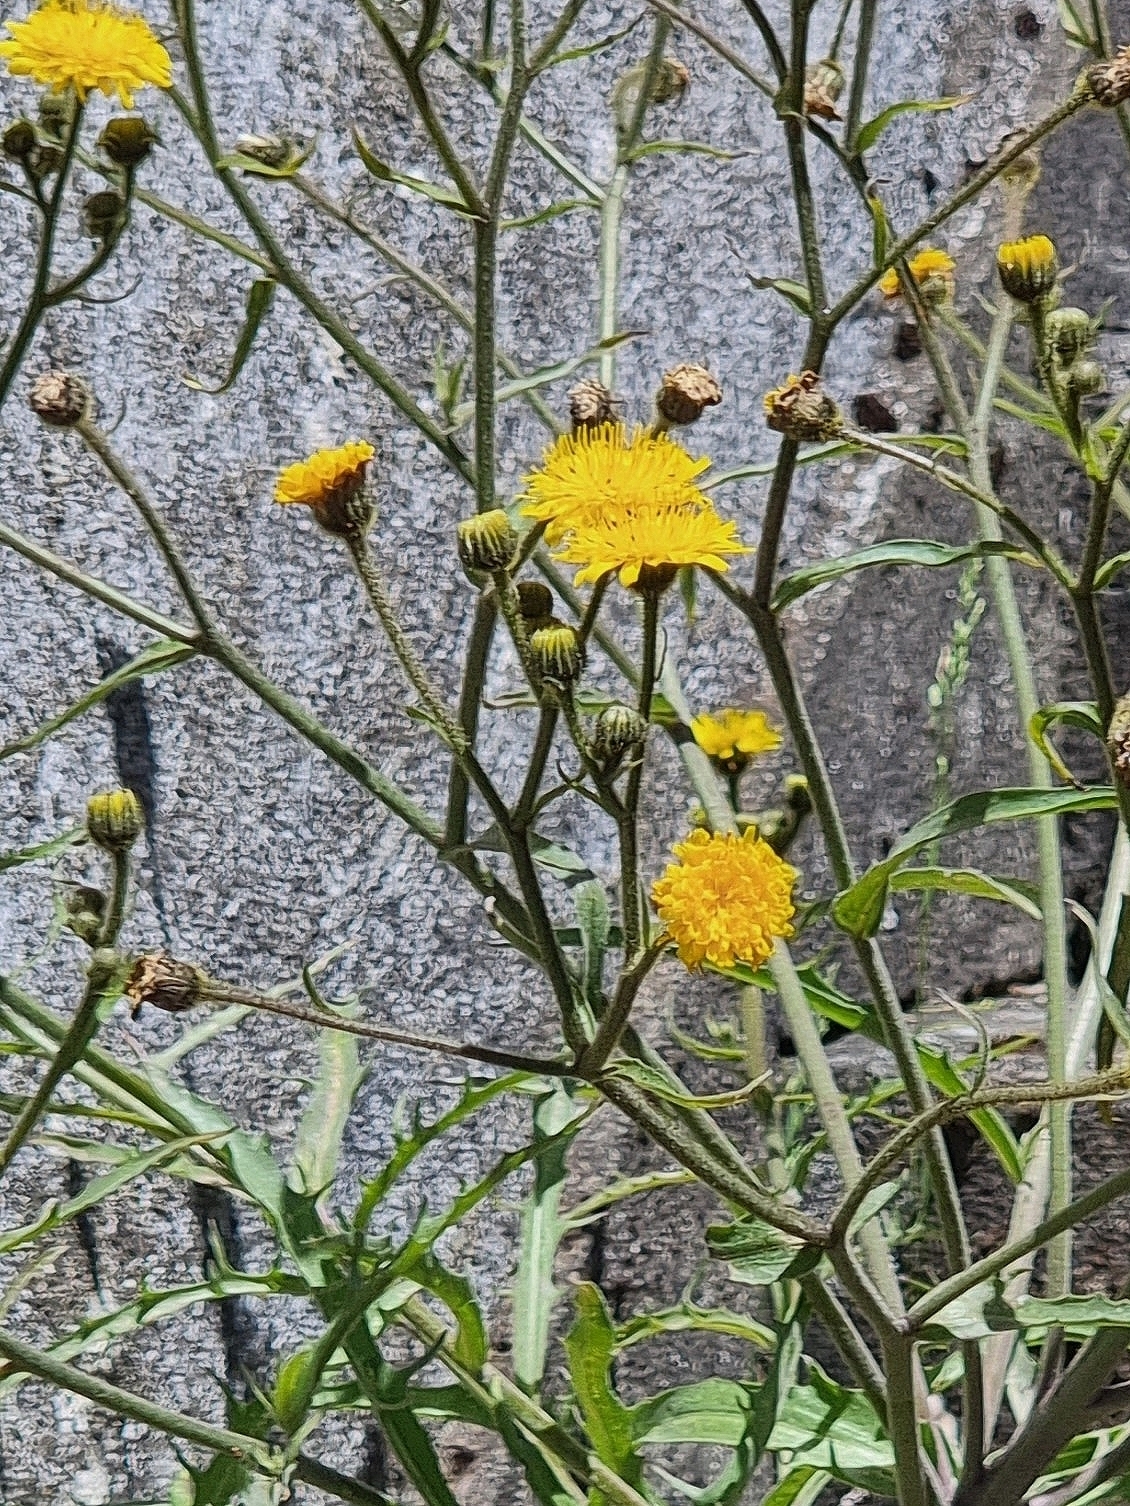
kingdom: Plantae
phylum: Tracheophyta
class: Magnoliopsida
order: Asterales
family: Asteraceae
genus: Andryala
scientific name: Andryala glandulosa
